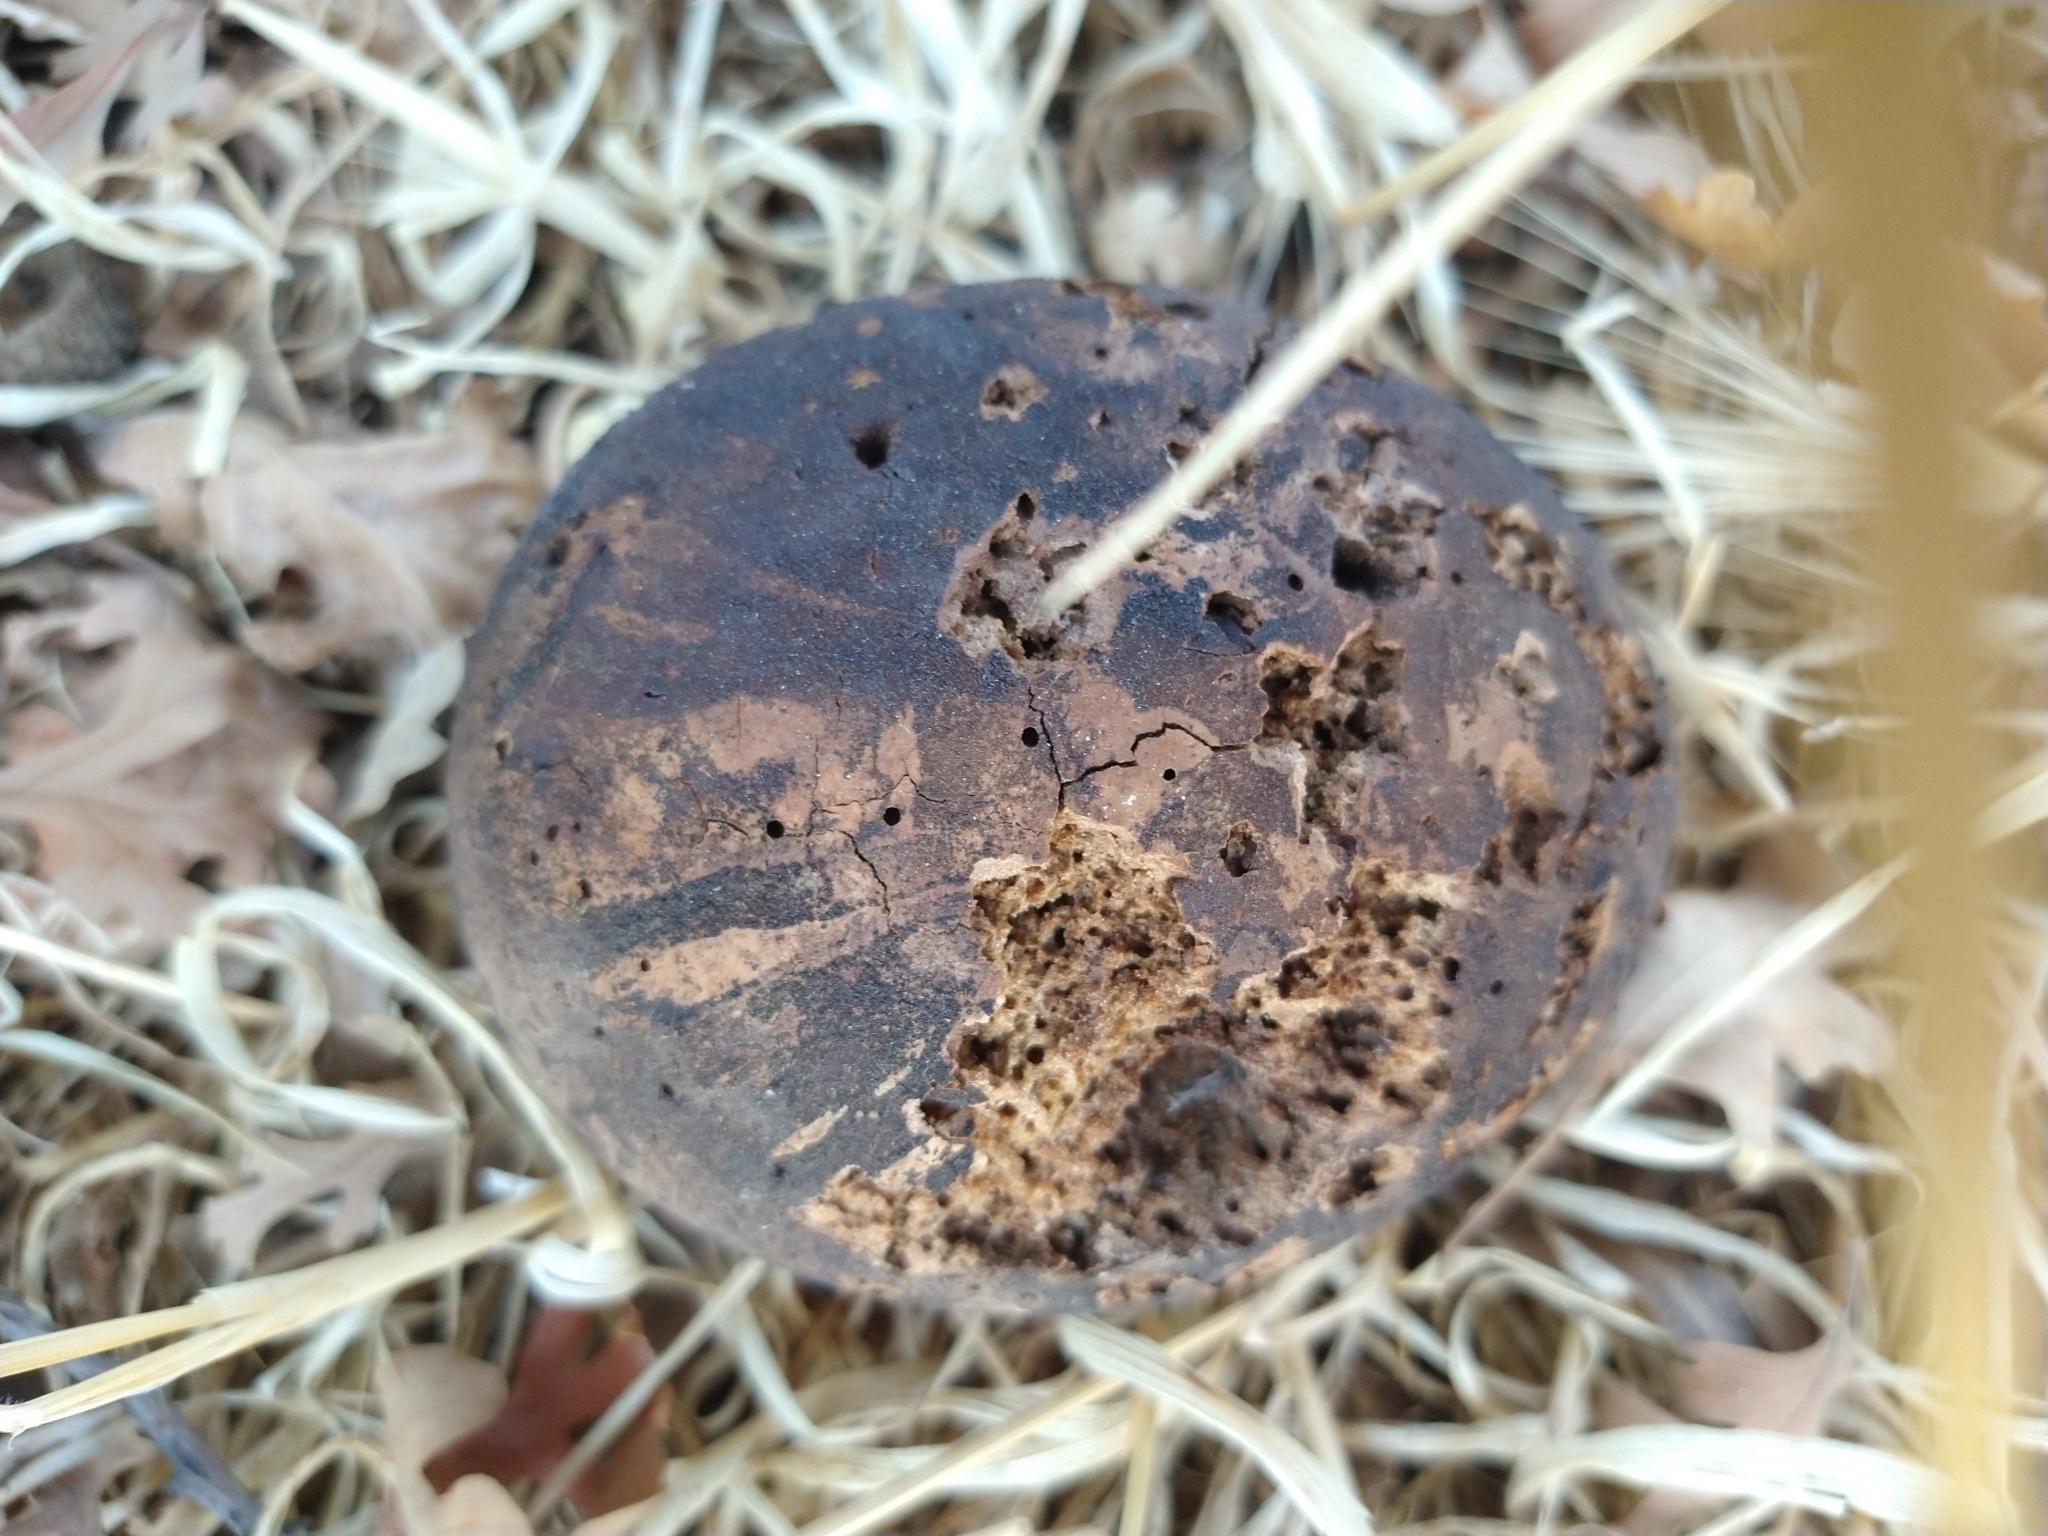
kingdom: Animalia
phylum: Arthropoda
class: Insecta
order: Hymenoptera
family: Cynipidae
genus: Andricus
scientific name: Andricus quercuscalifornicus
